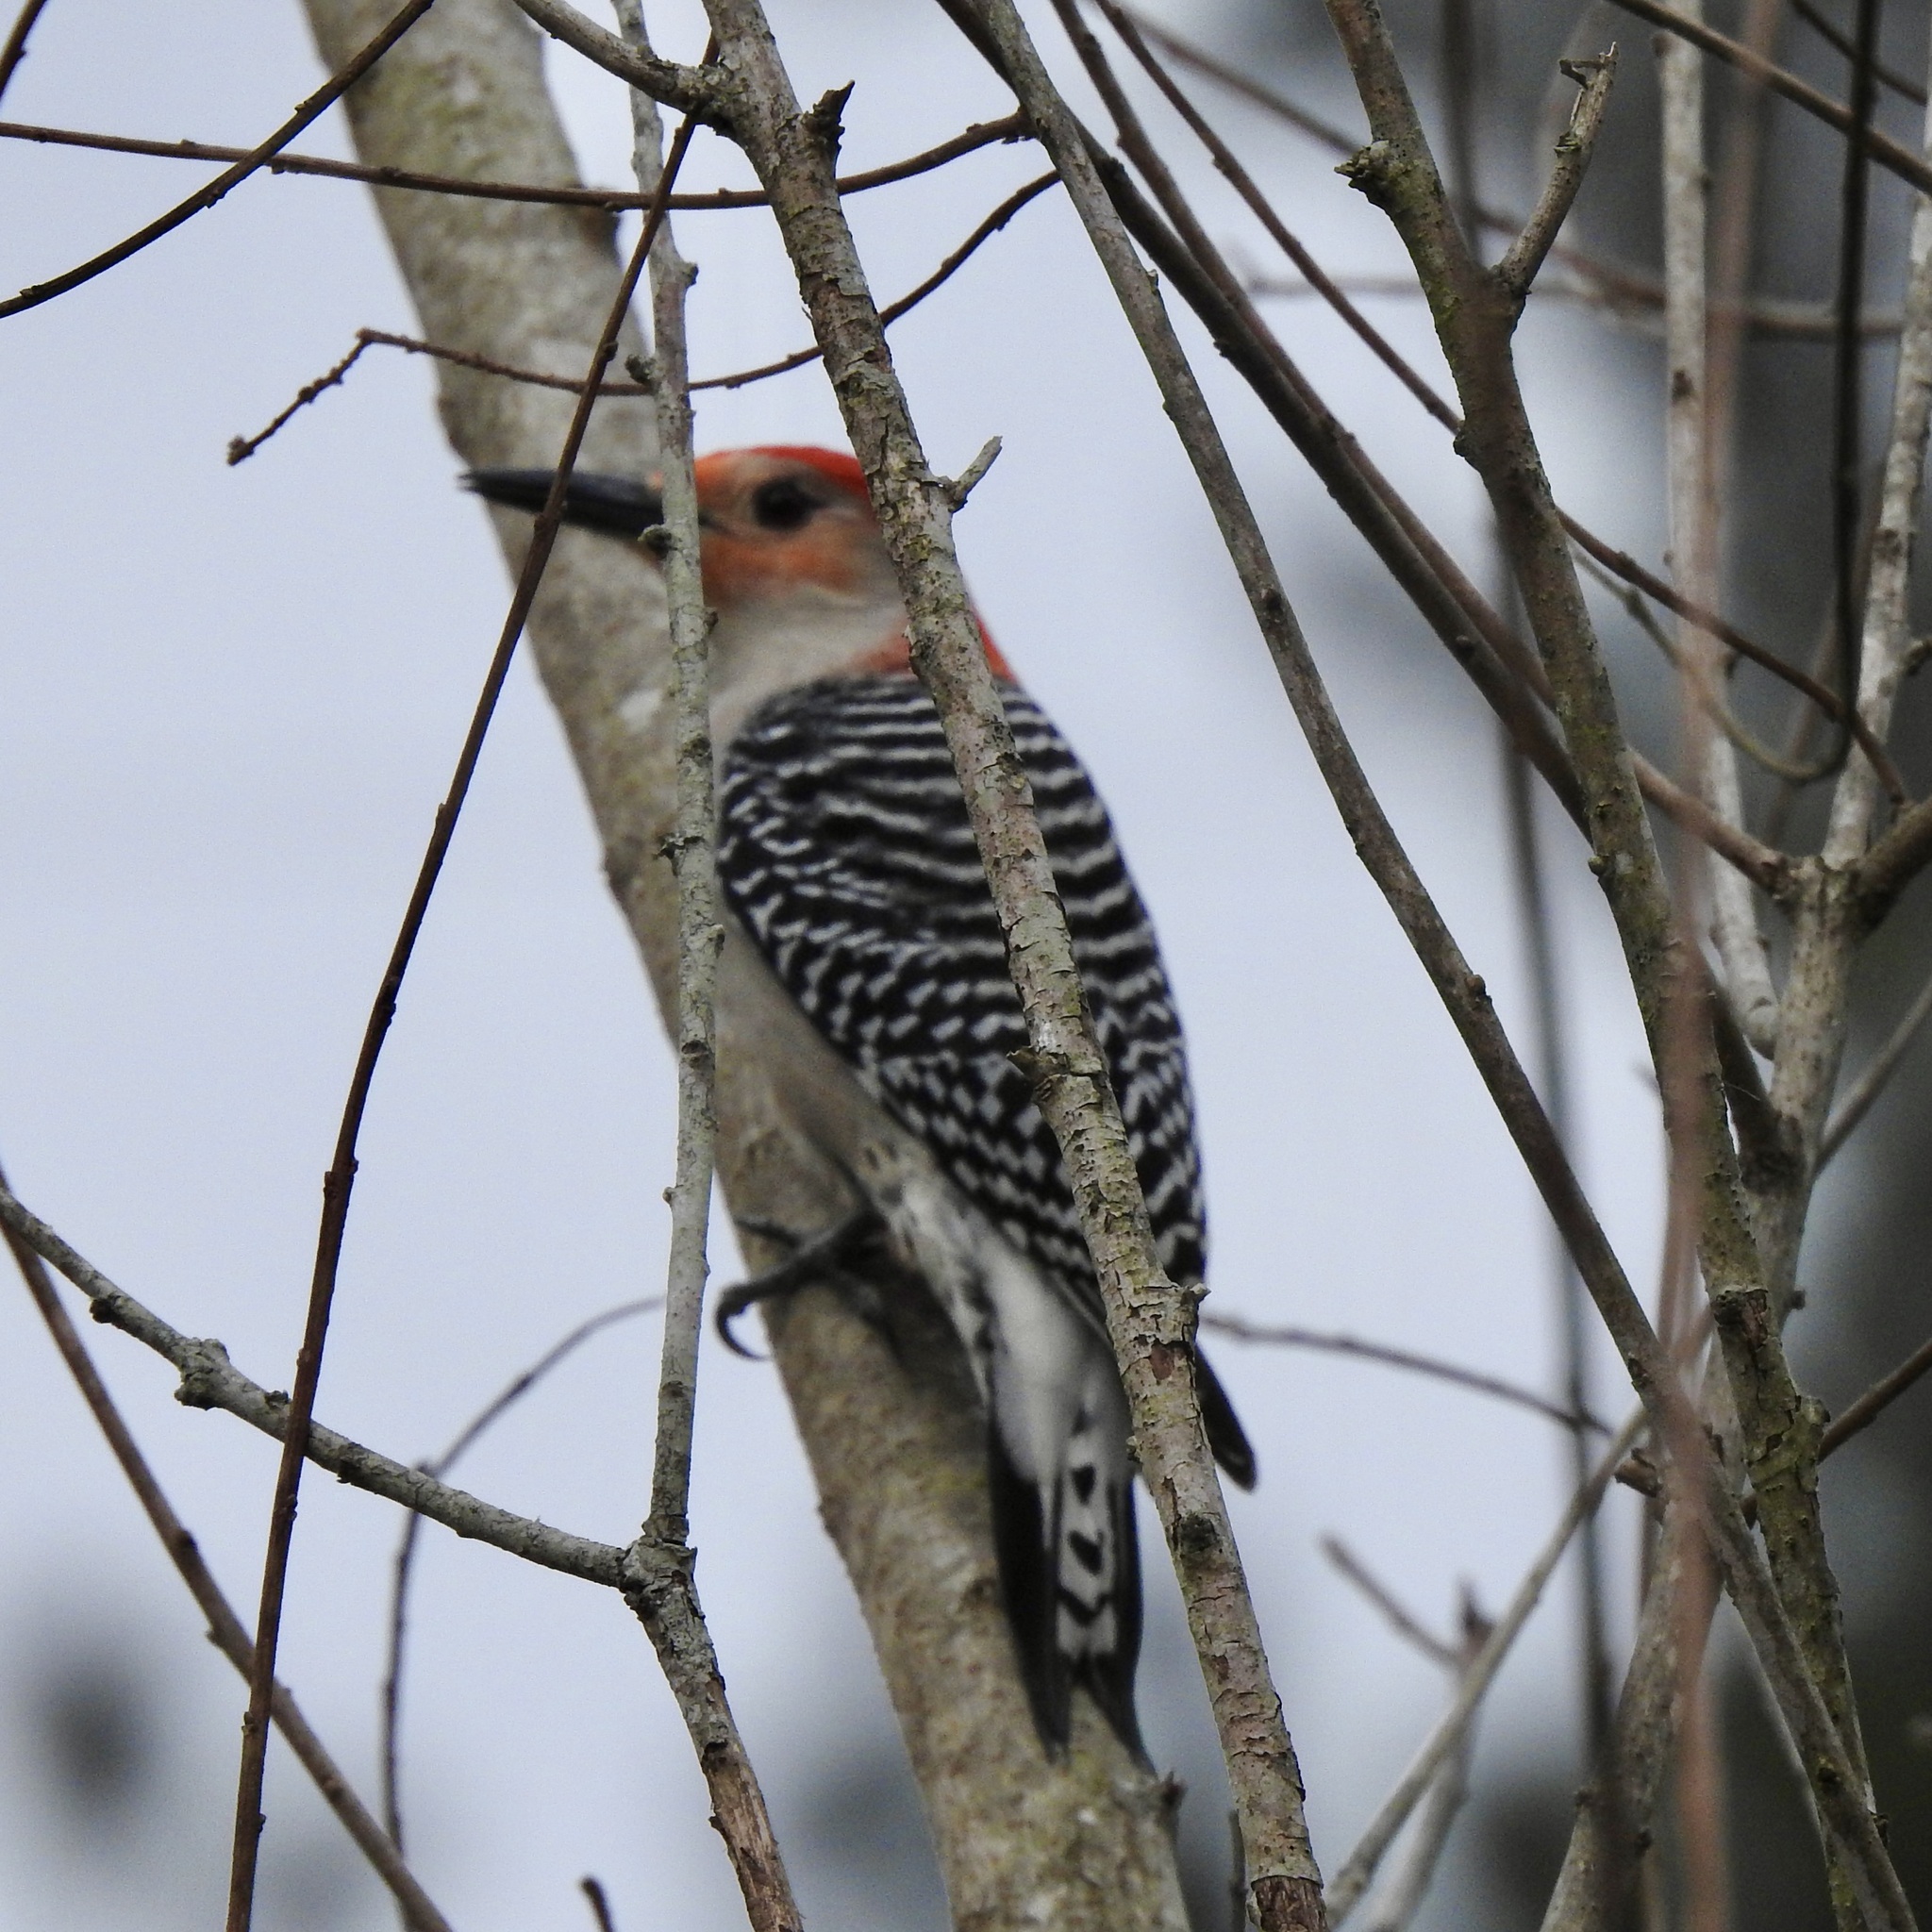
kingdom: Animalia
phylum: Chordata
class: Aves
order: Piciformes
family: Picidae
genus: Melanerpes
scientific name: Melanerpes carolinus
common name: Red-bellied woodpecker
